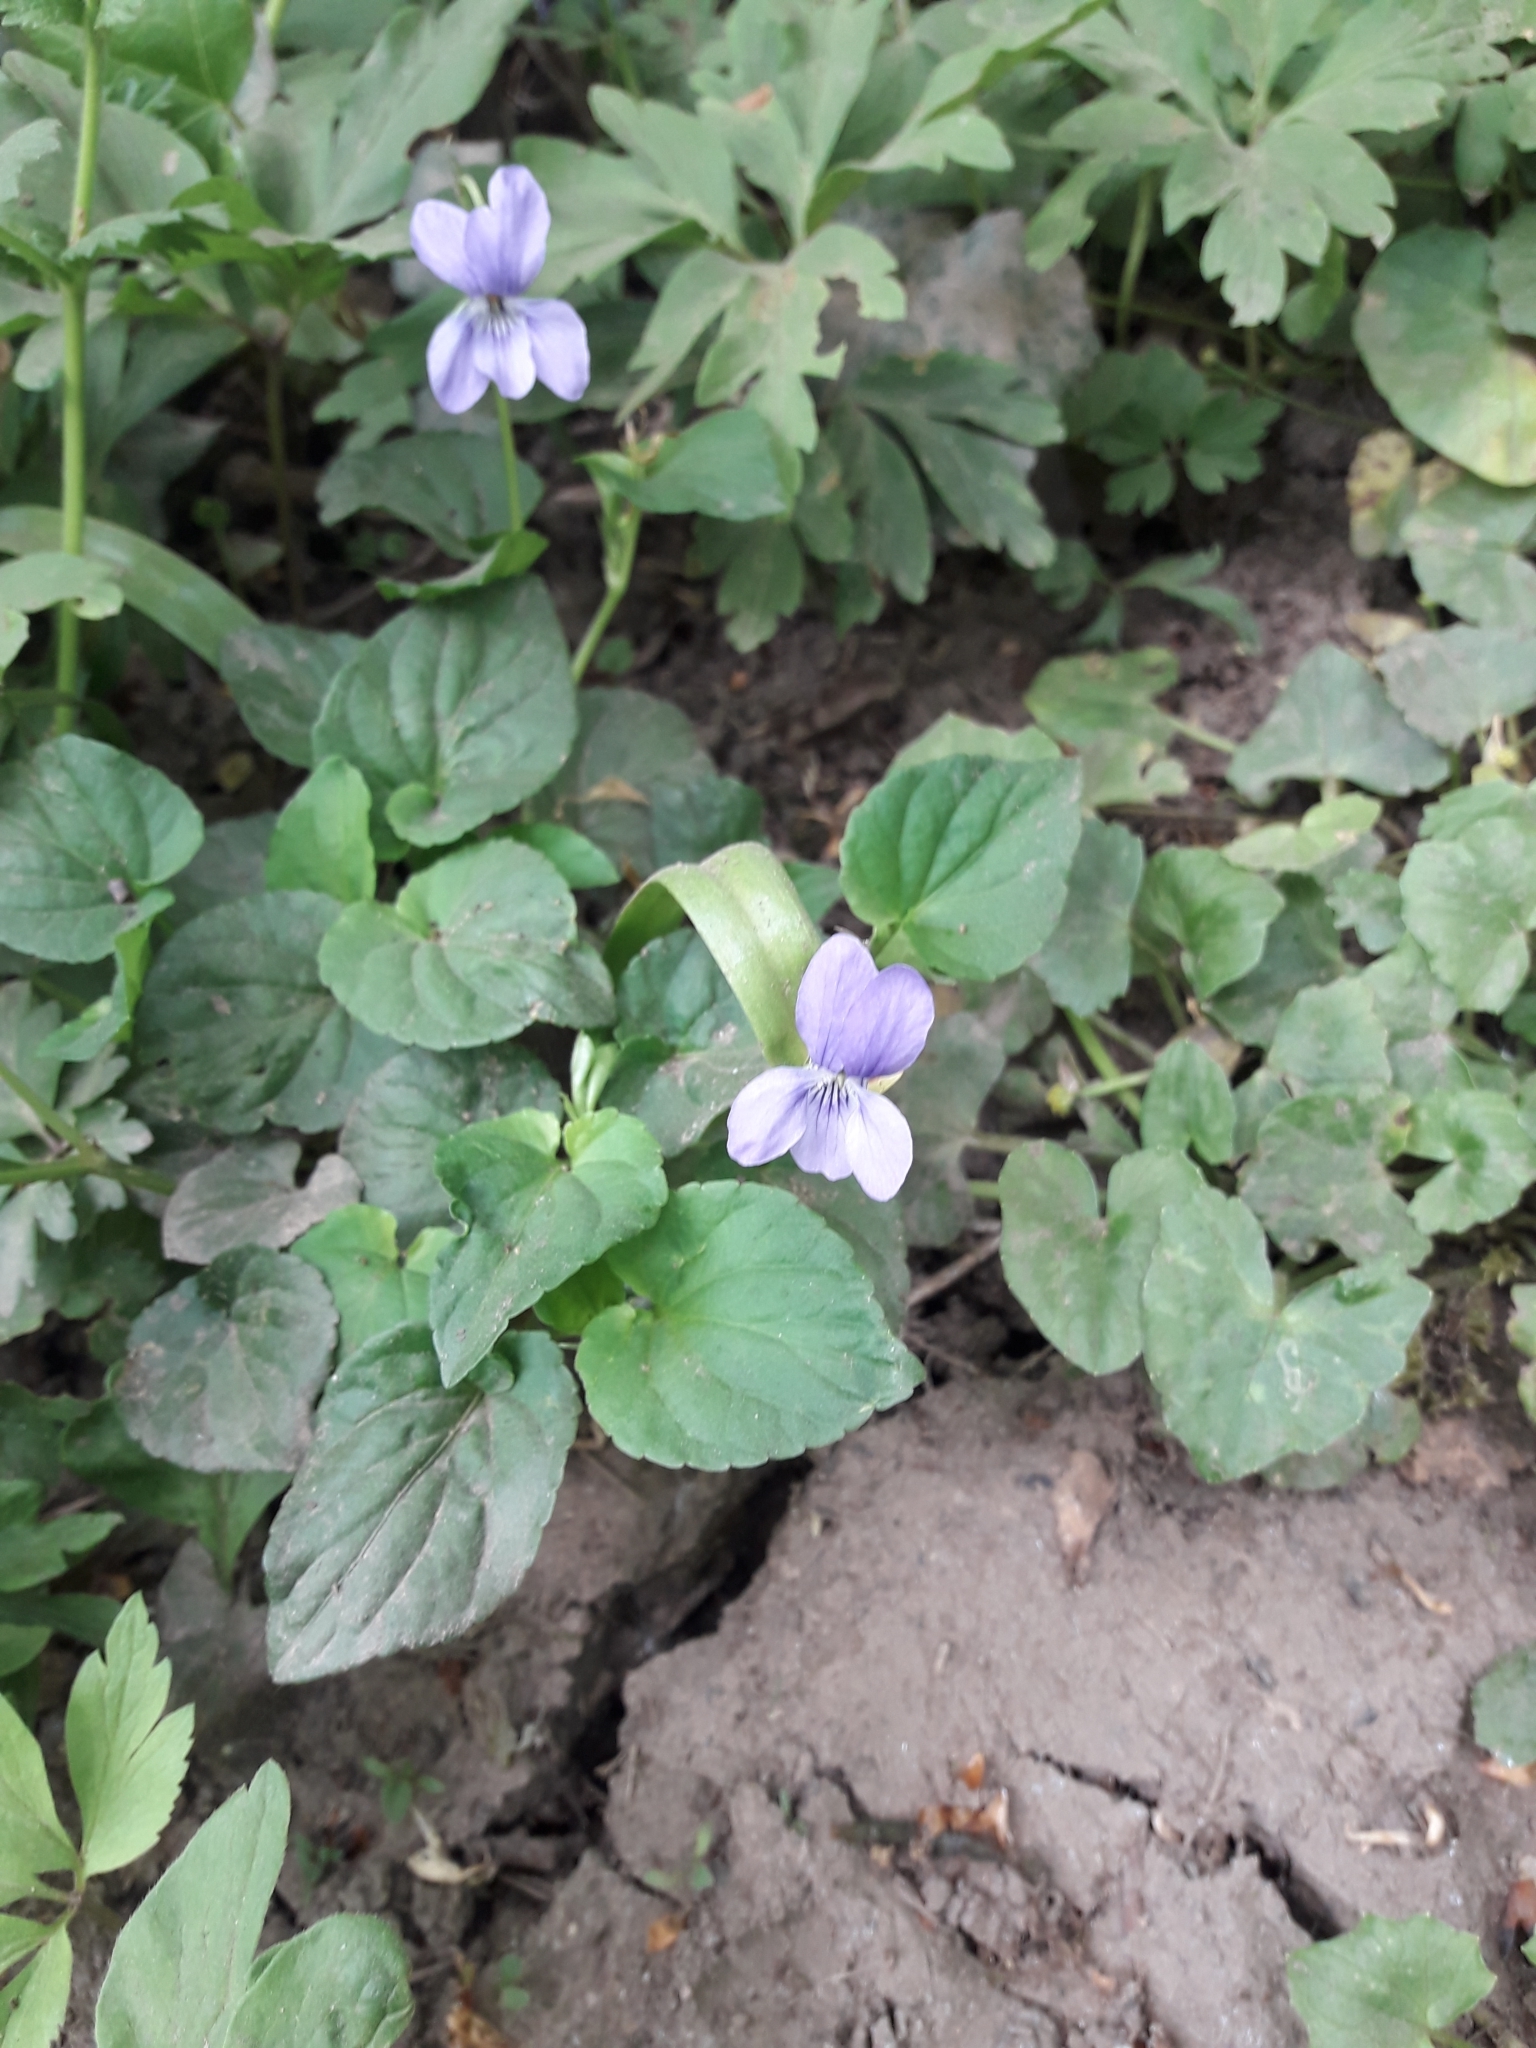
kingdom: Plantae
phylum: Tracheophyta
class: Magnoliopsida
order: Malpighiales
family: Violaceae
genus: Viola
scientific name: Viola riviniana
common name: Common dog-violet
